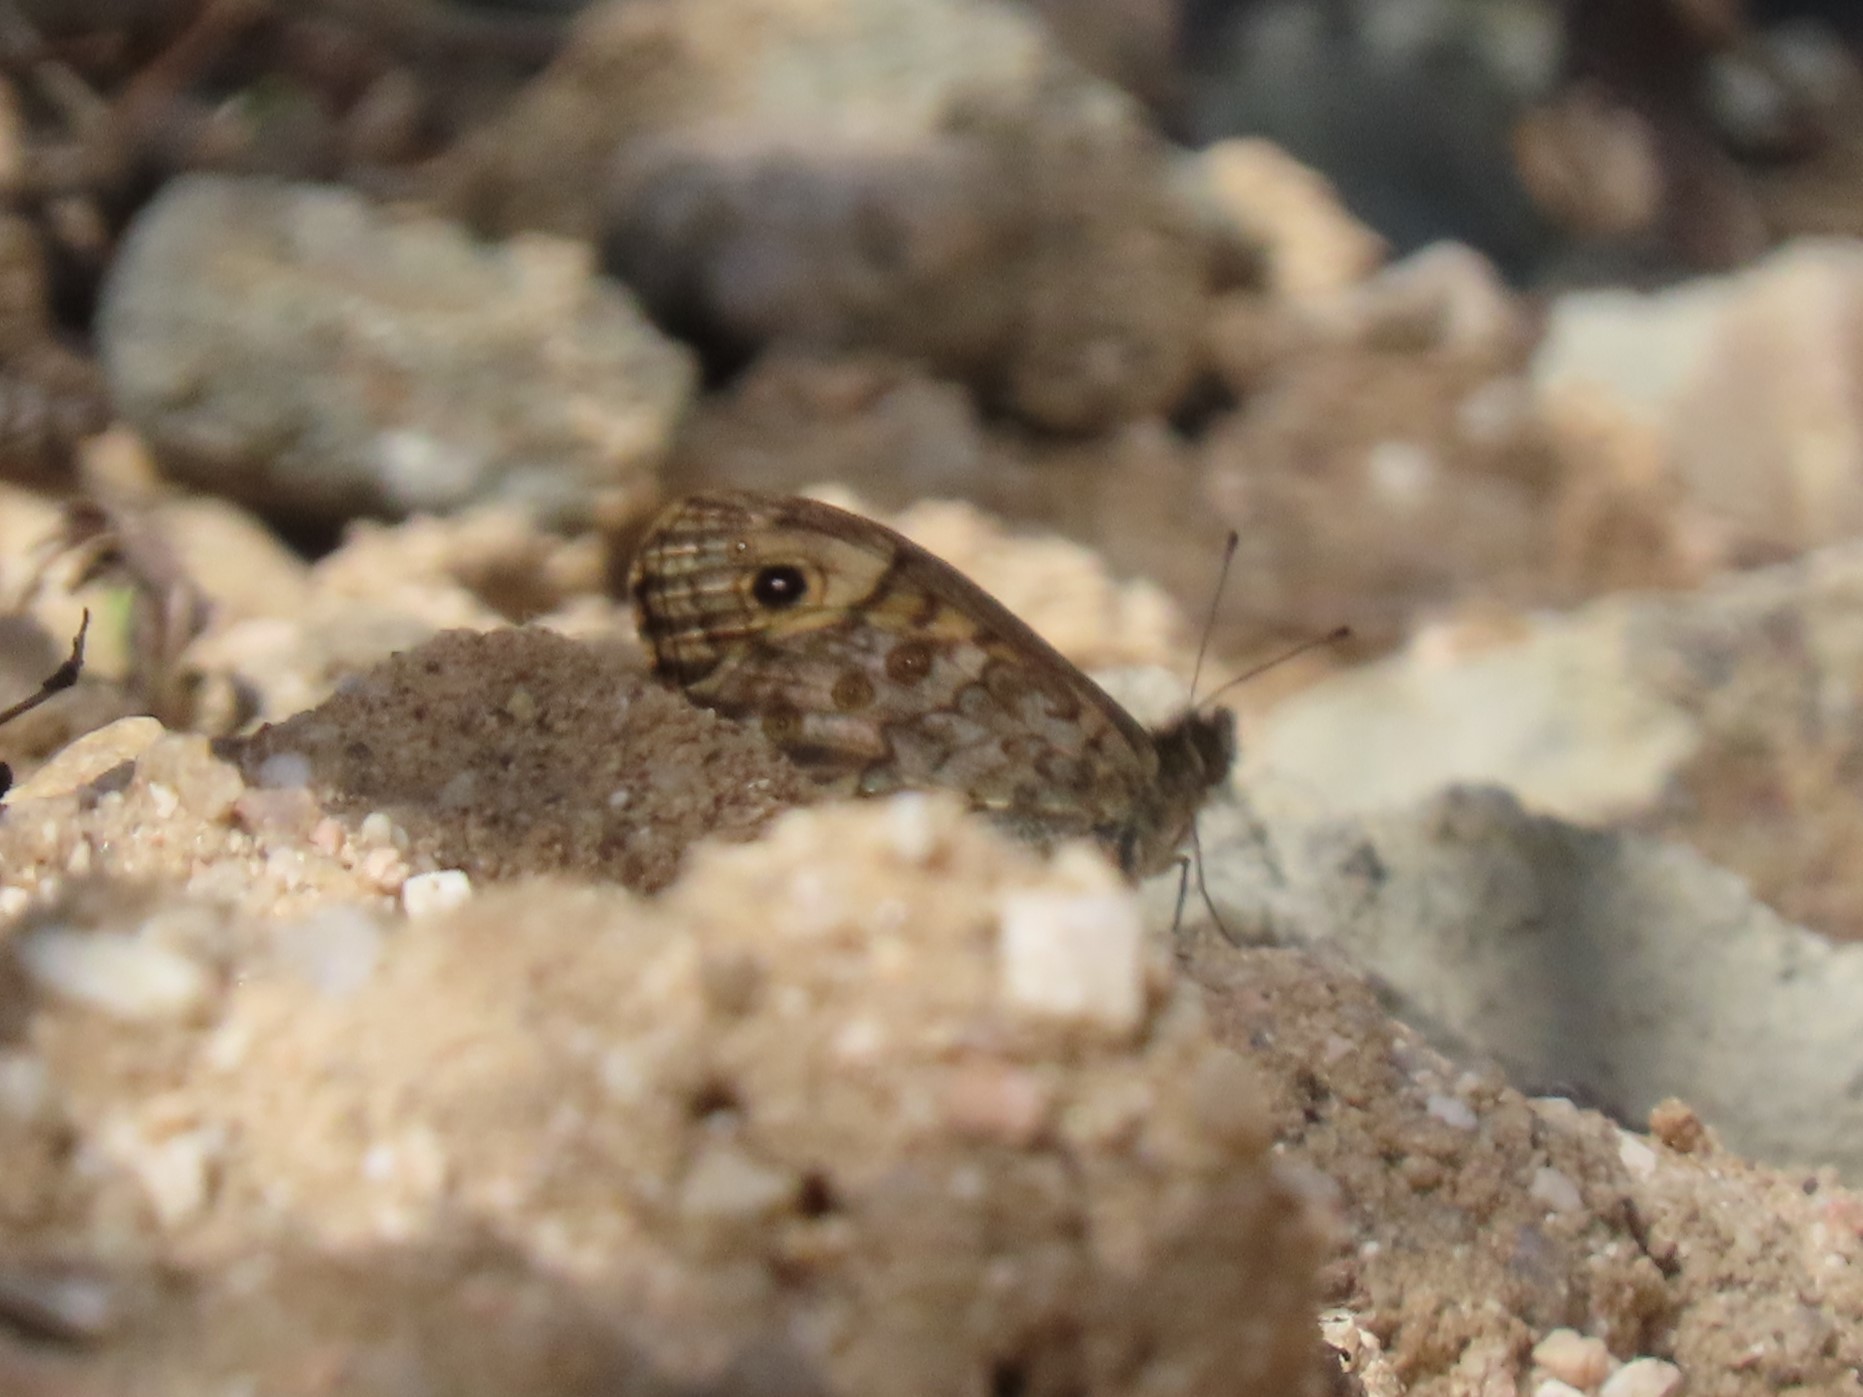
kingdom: Animalia
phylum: Arthropoda
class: Insecta
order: Lepidoptera
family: Nymphalidae
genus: Pararge
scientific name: Pararge Lasiommata megera
